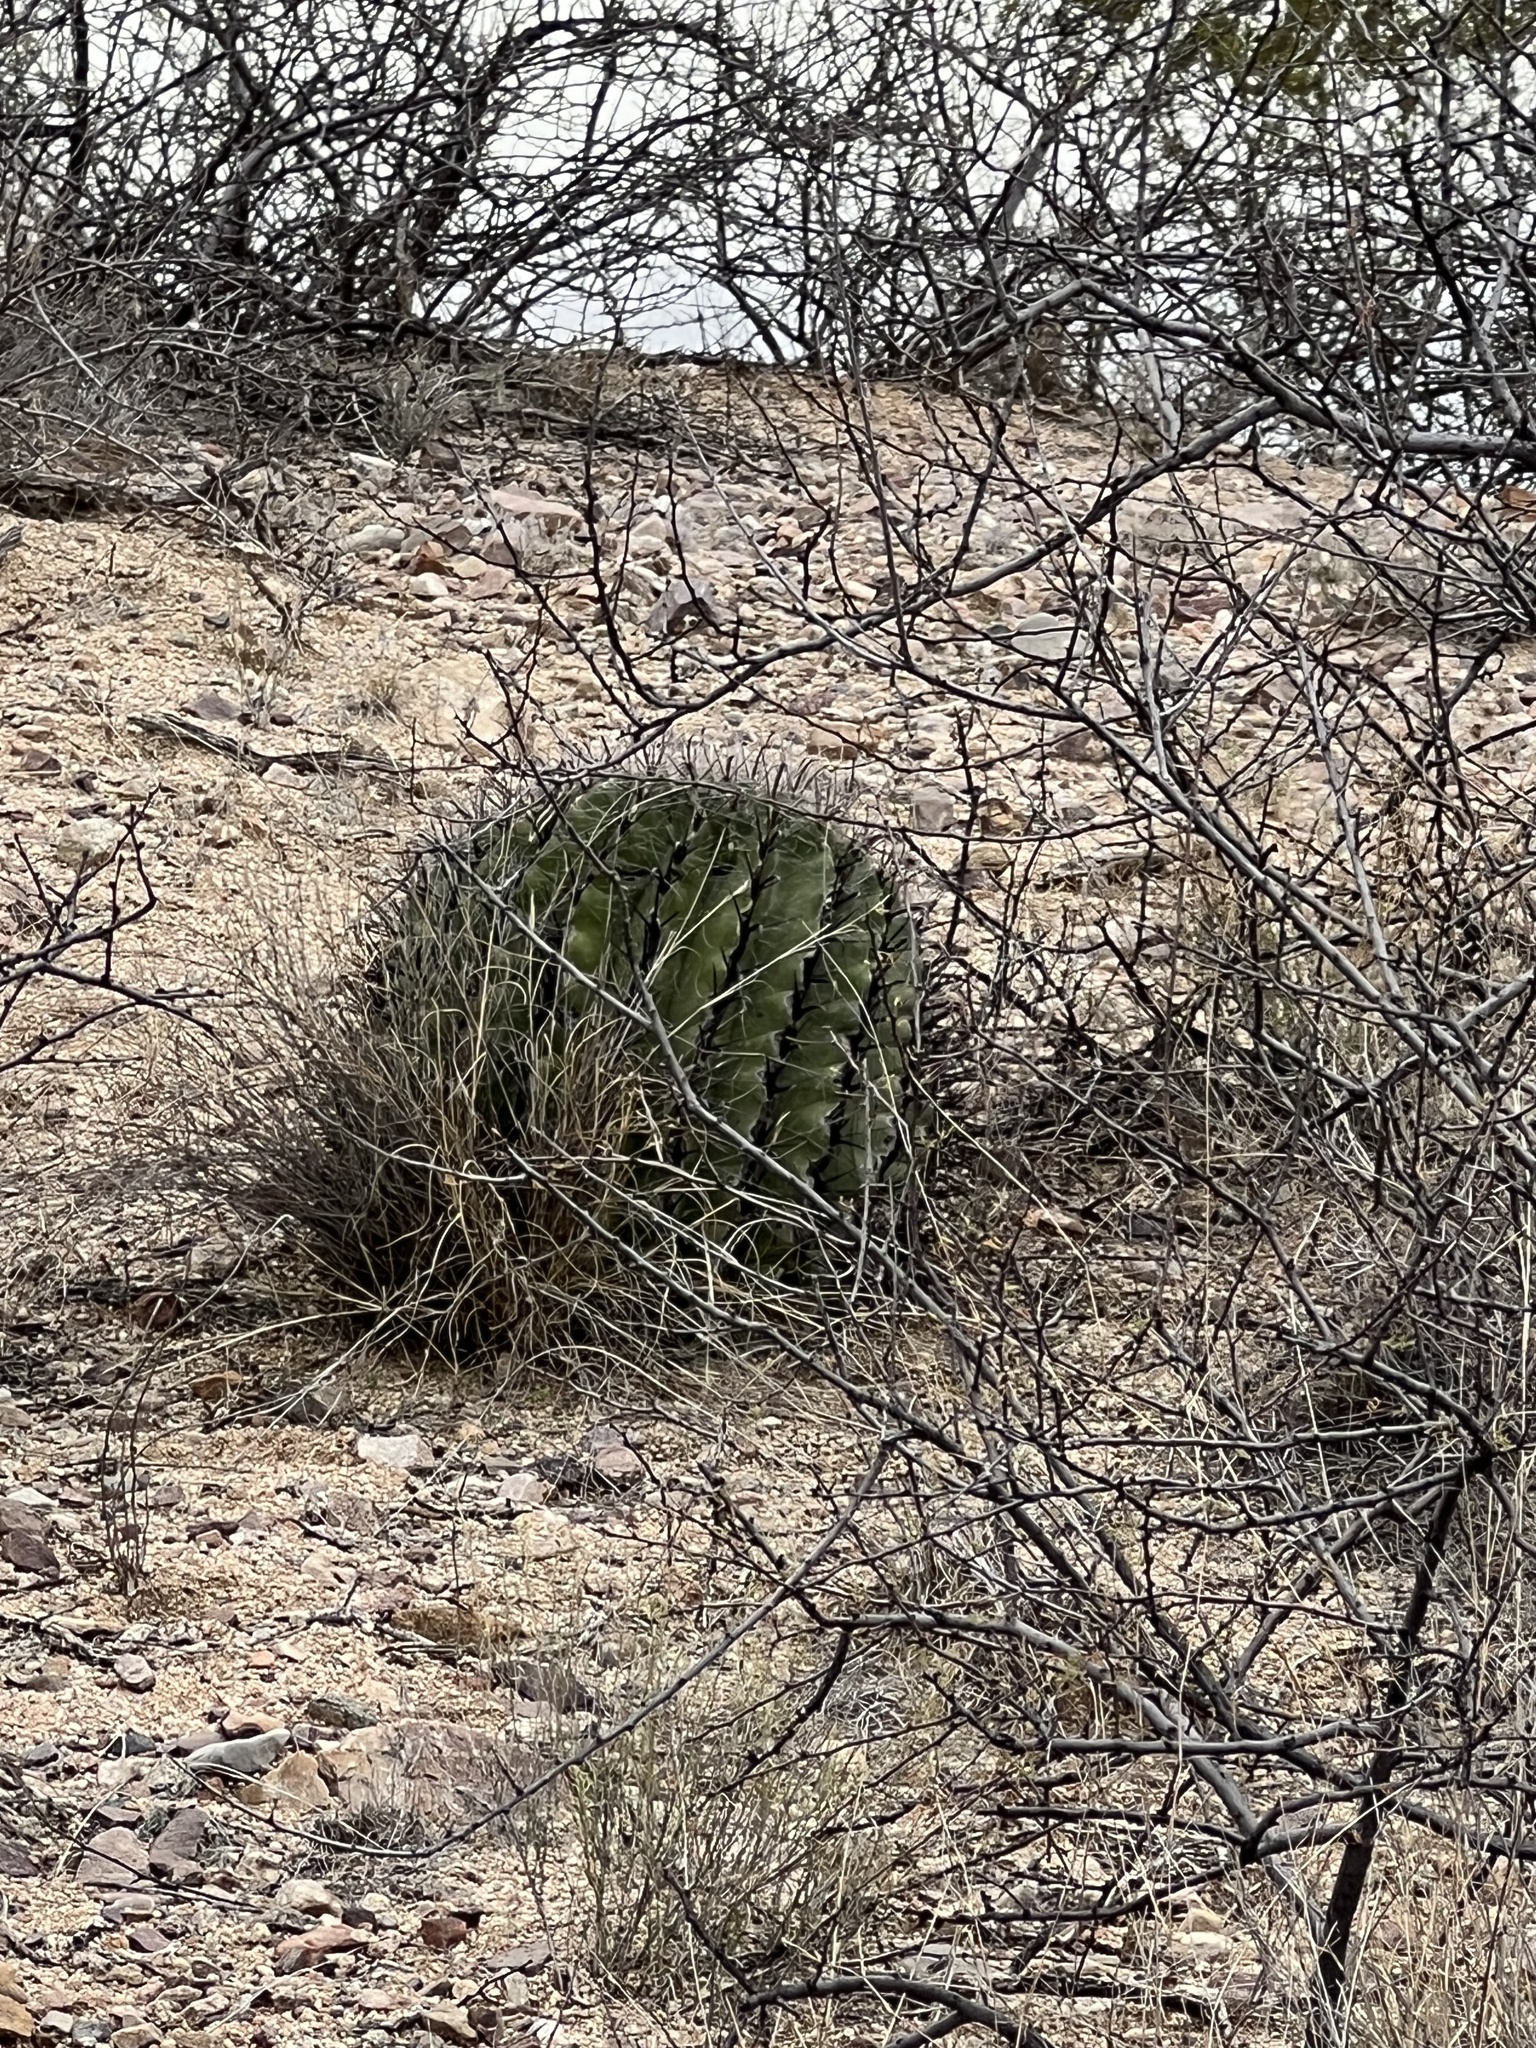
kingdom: Plantae
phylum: Tracheophyta
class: Magnoliopsida
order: Caryophyllales
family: Cactaceae
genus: Ferocactus
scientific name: Ferocactus wislizeni
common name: Candy barrel cactus
